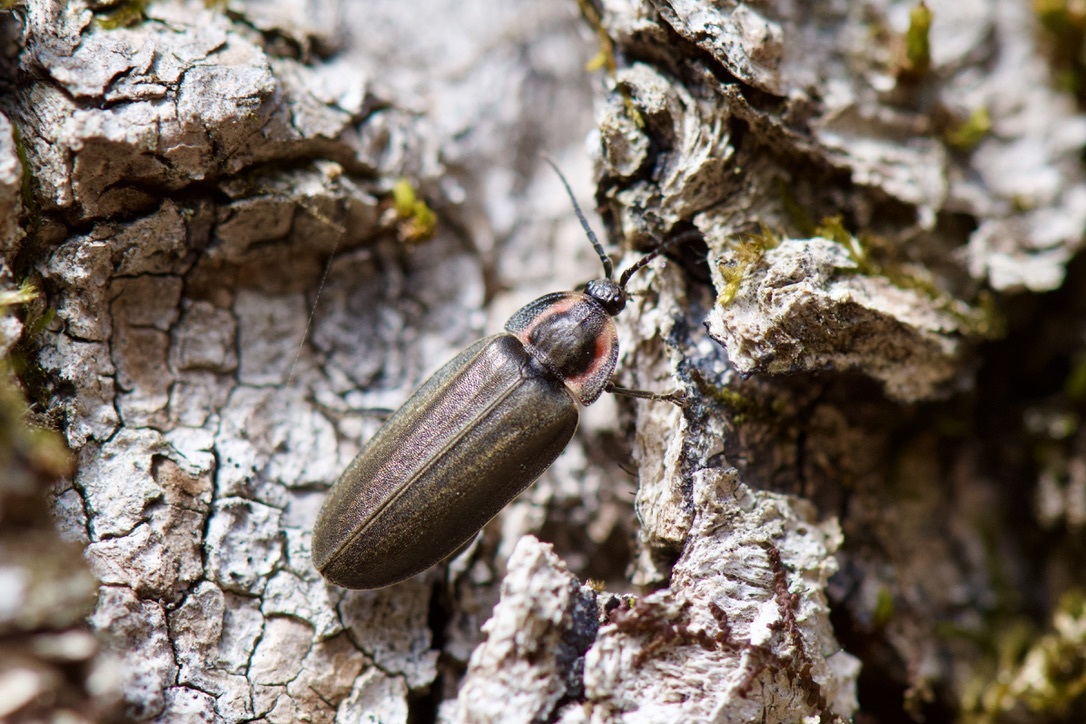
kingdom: Animalia
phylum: Arthropoda
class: Insecta
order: Coleoptera
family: Lampyridae
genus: Photinus
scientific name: Photinus corrusca
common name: Winter firefly
